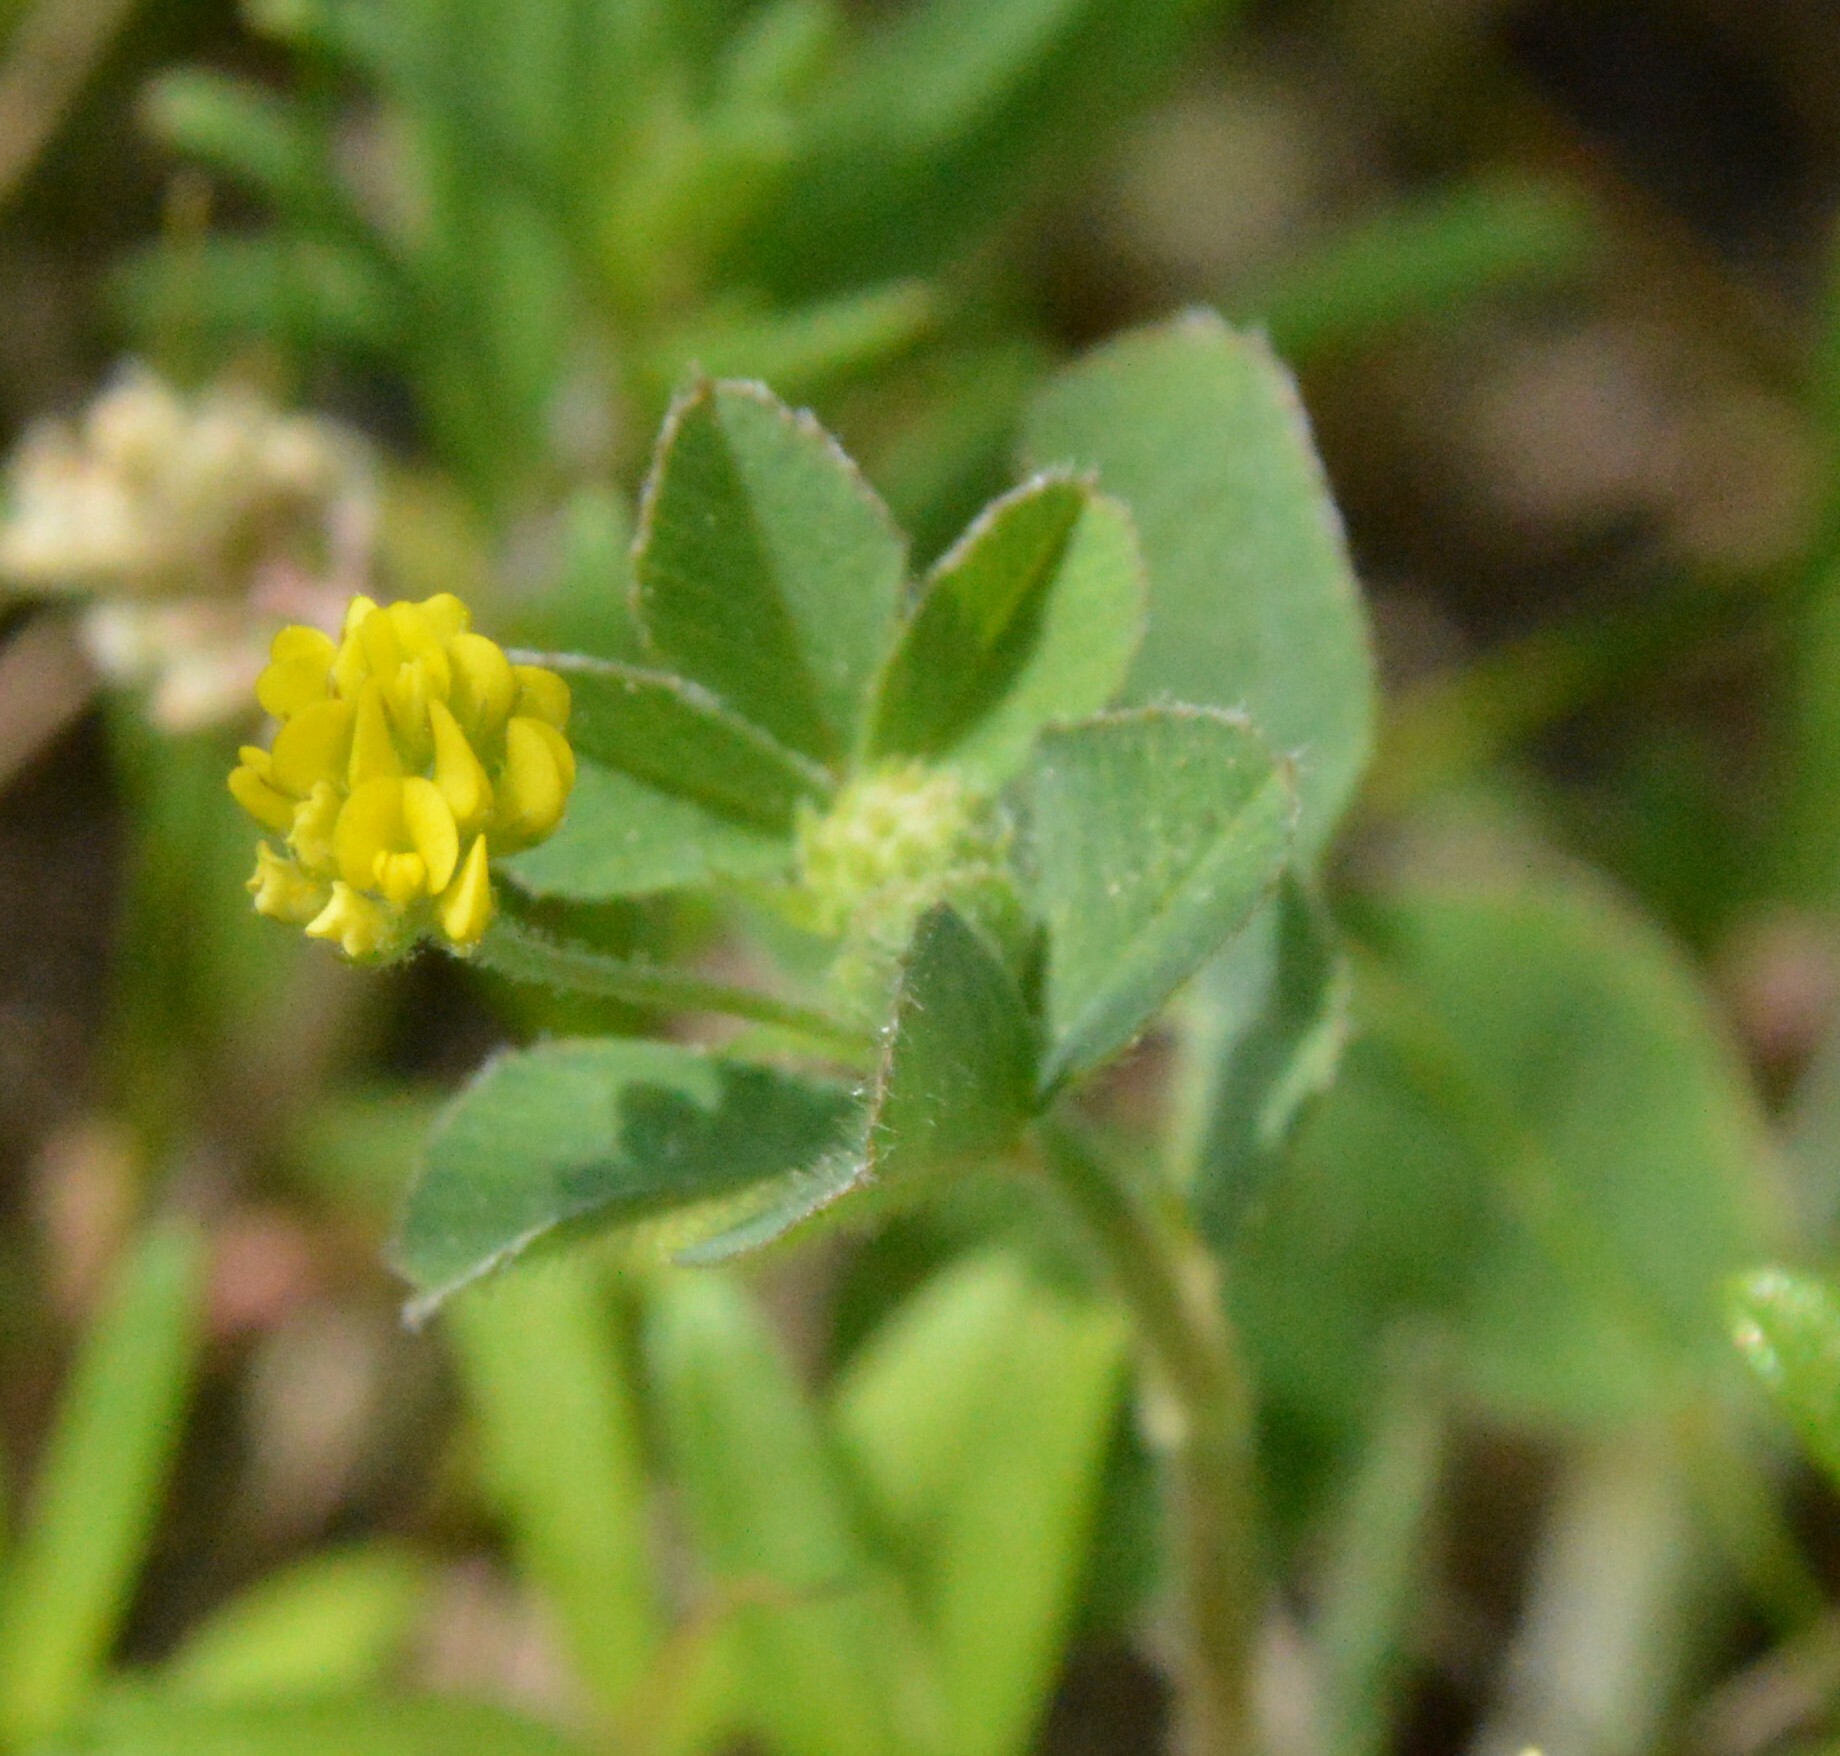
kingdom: Plantae
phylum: Tracheophyta
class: Magnoliopsida
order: Fabales
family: Fabaceae
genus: Medicago
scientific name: Medicago lupulina
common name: Black medick
